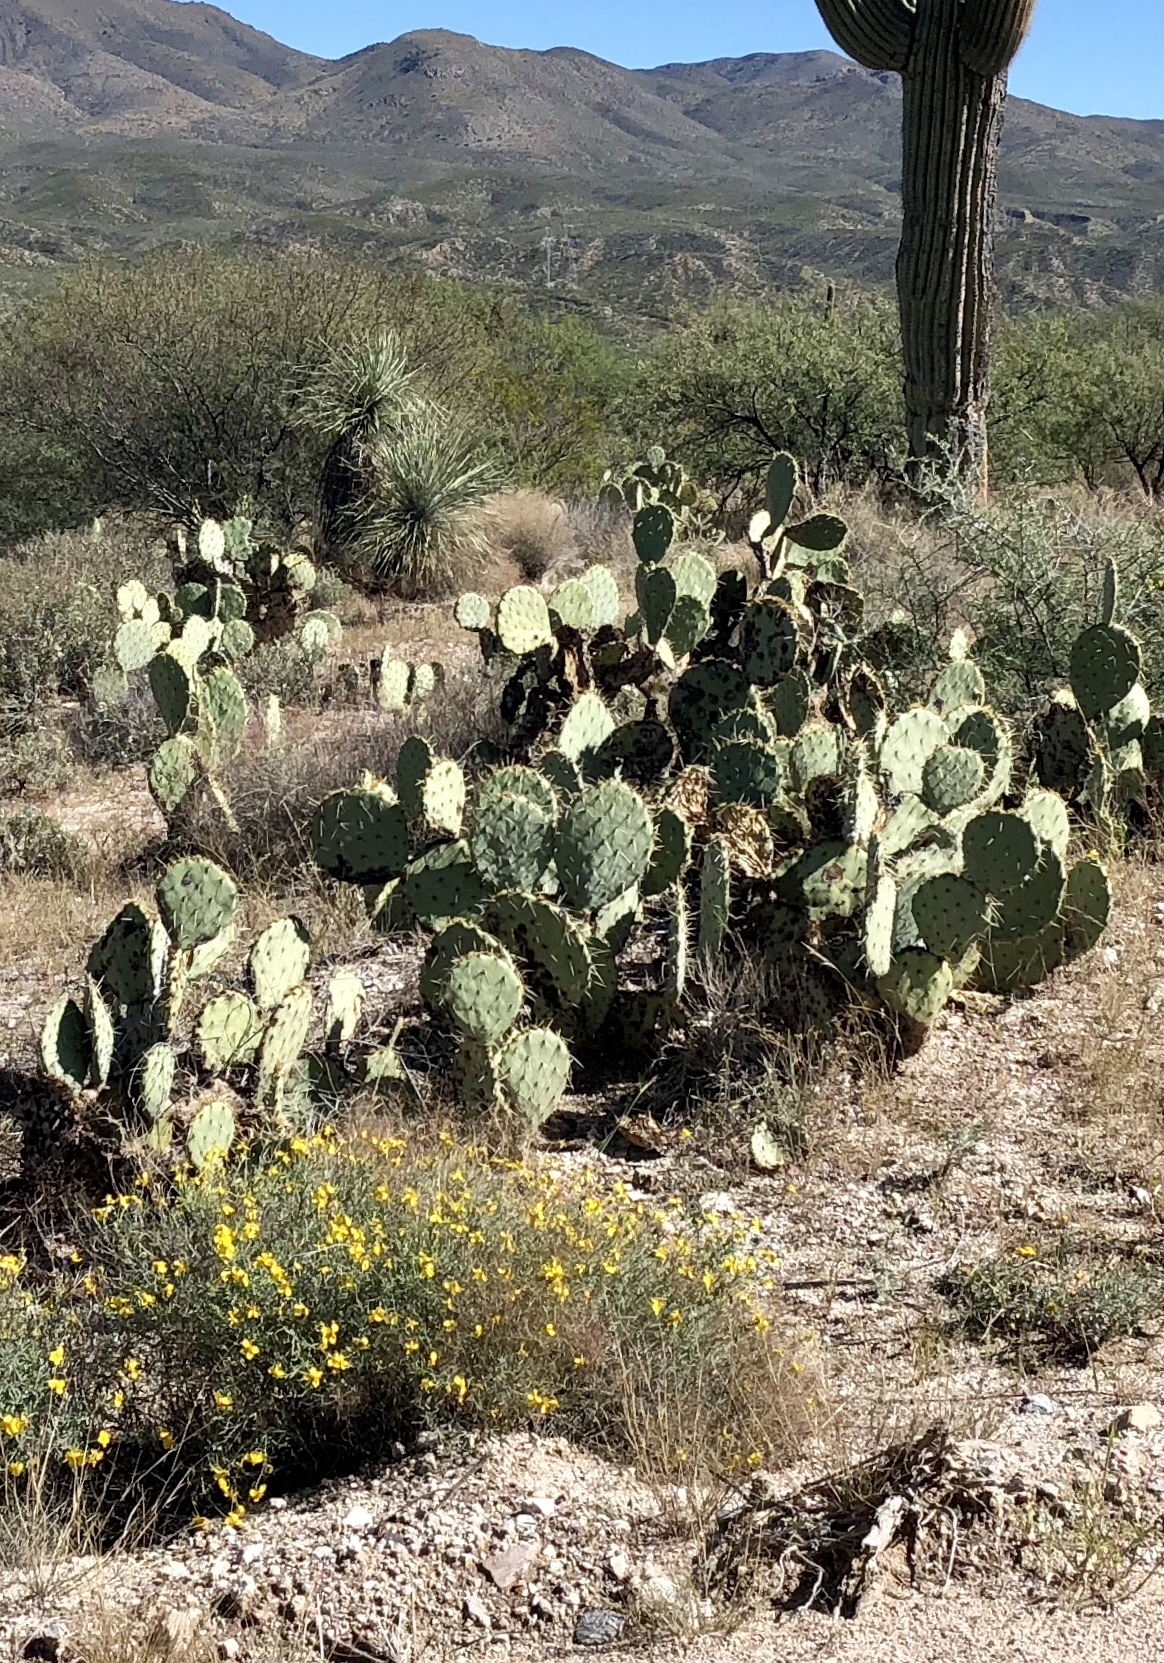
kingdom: Plantae
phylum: Tracheophyta
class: Magnoliopsida
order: Caryophyllales
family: Cactaceae
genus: Opuntia
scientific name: Opuntia engelmannii
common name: Cactus-apple
